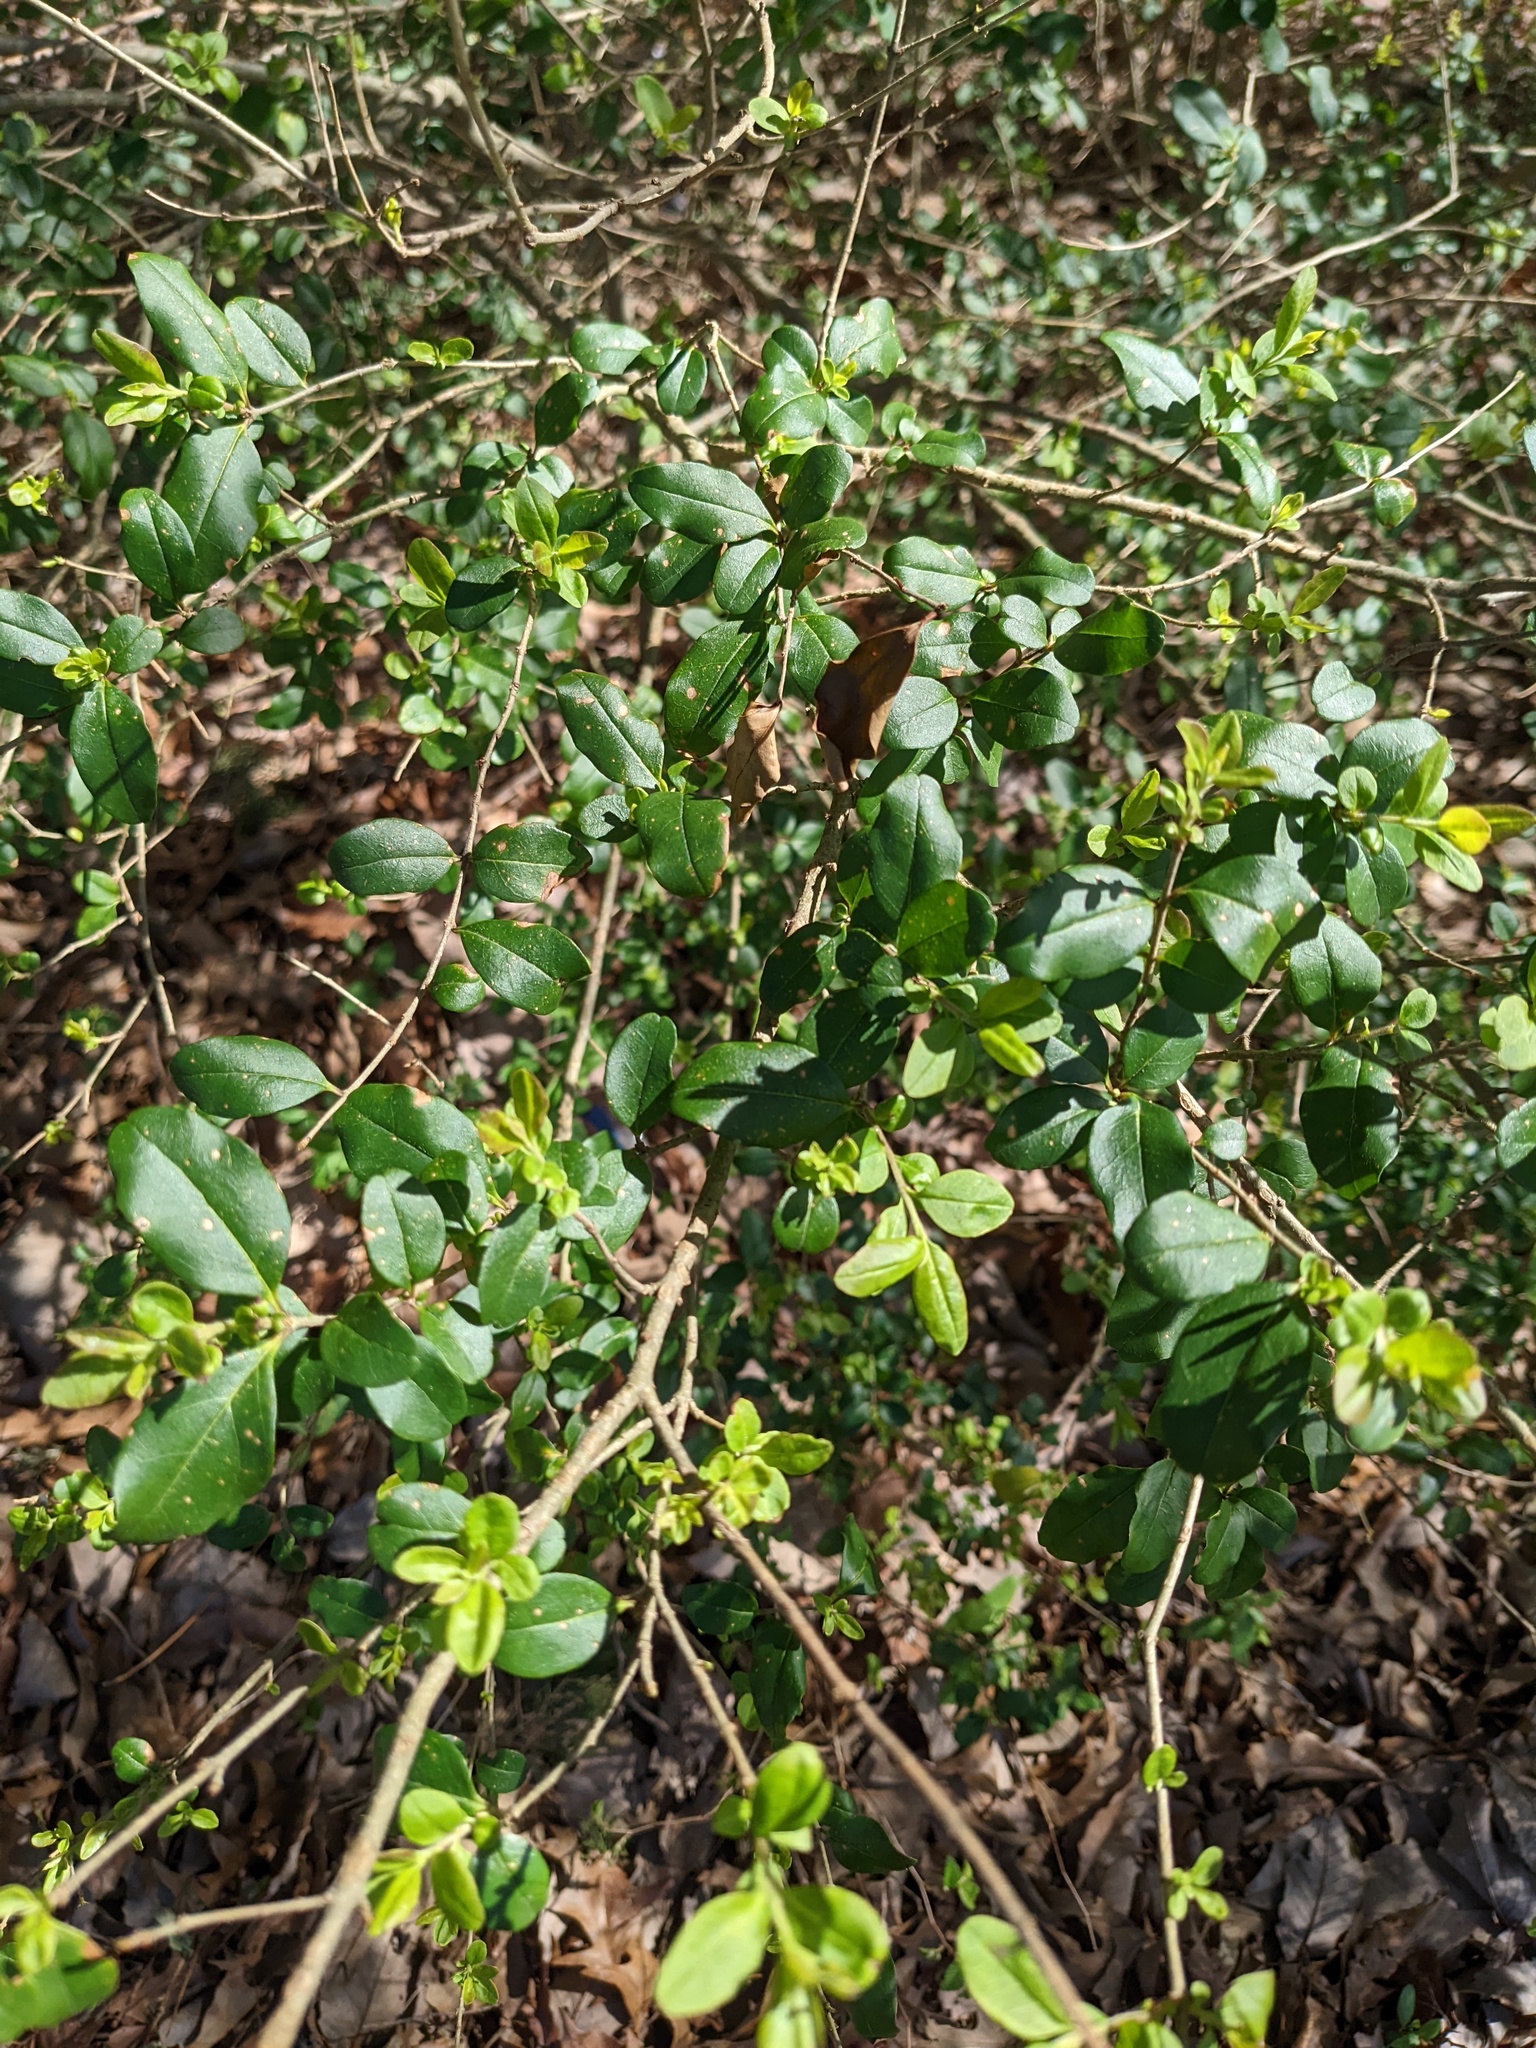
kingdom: Plantae
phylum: Tracheophyta
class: Magnoliopsida
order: Lamiales
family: Oleaceae
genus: Ligustrum
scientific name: Ligustrum sinense
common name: Chinese privet
